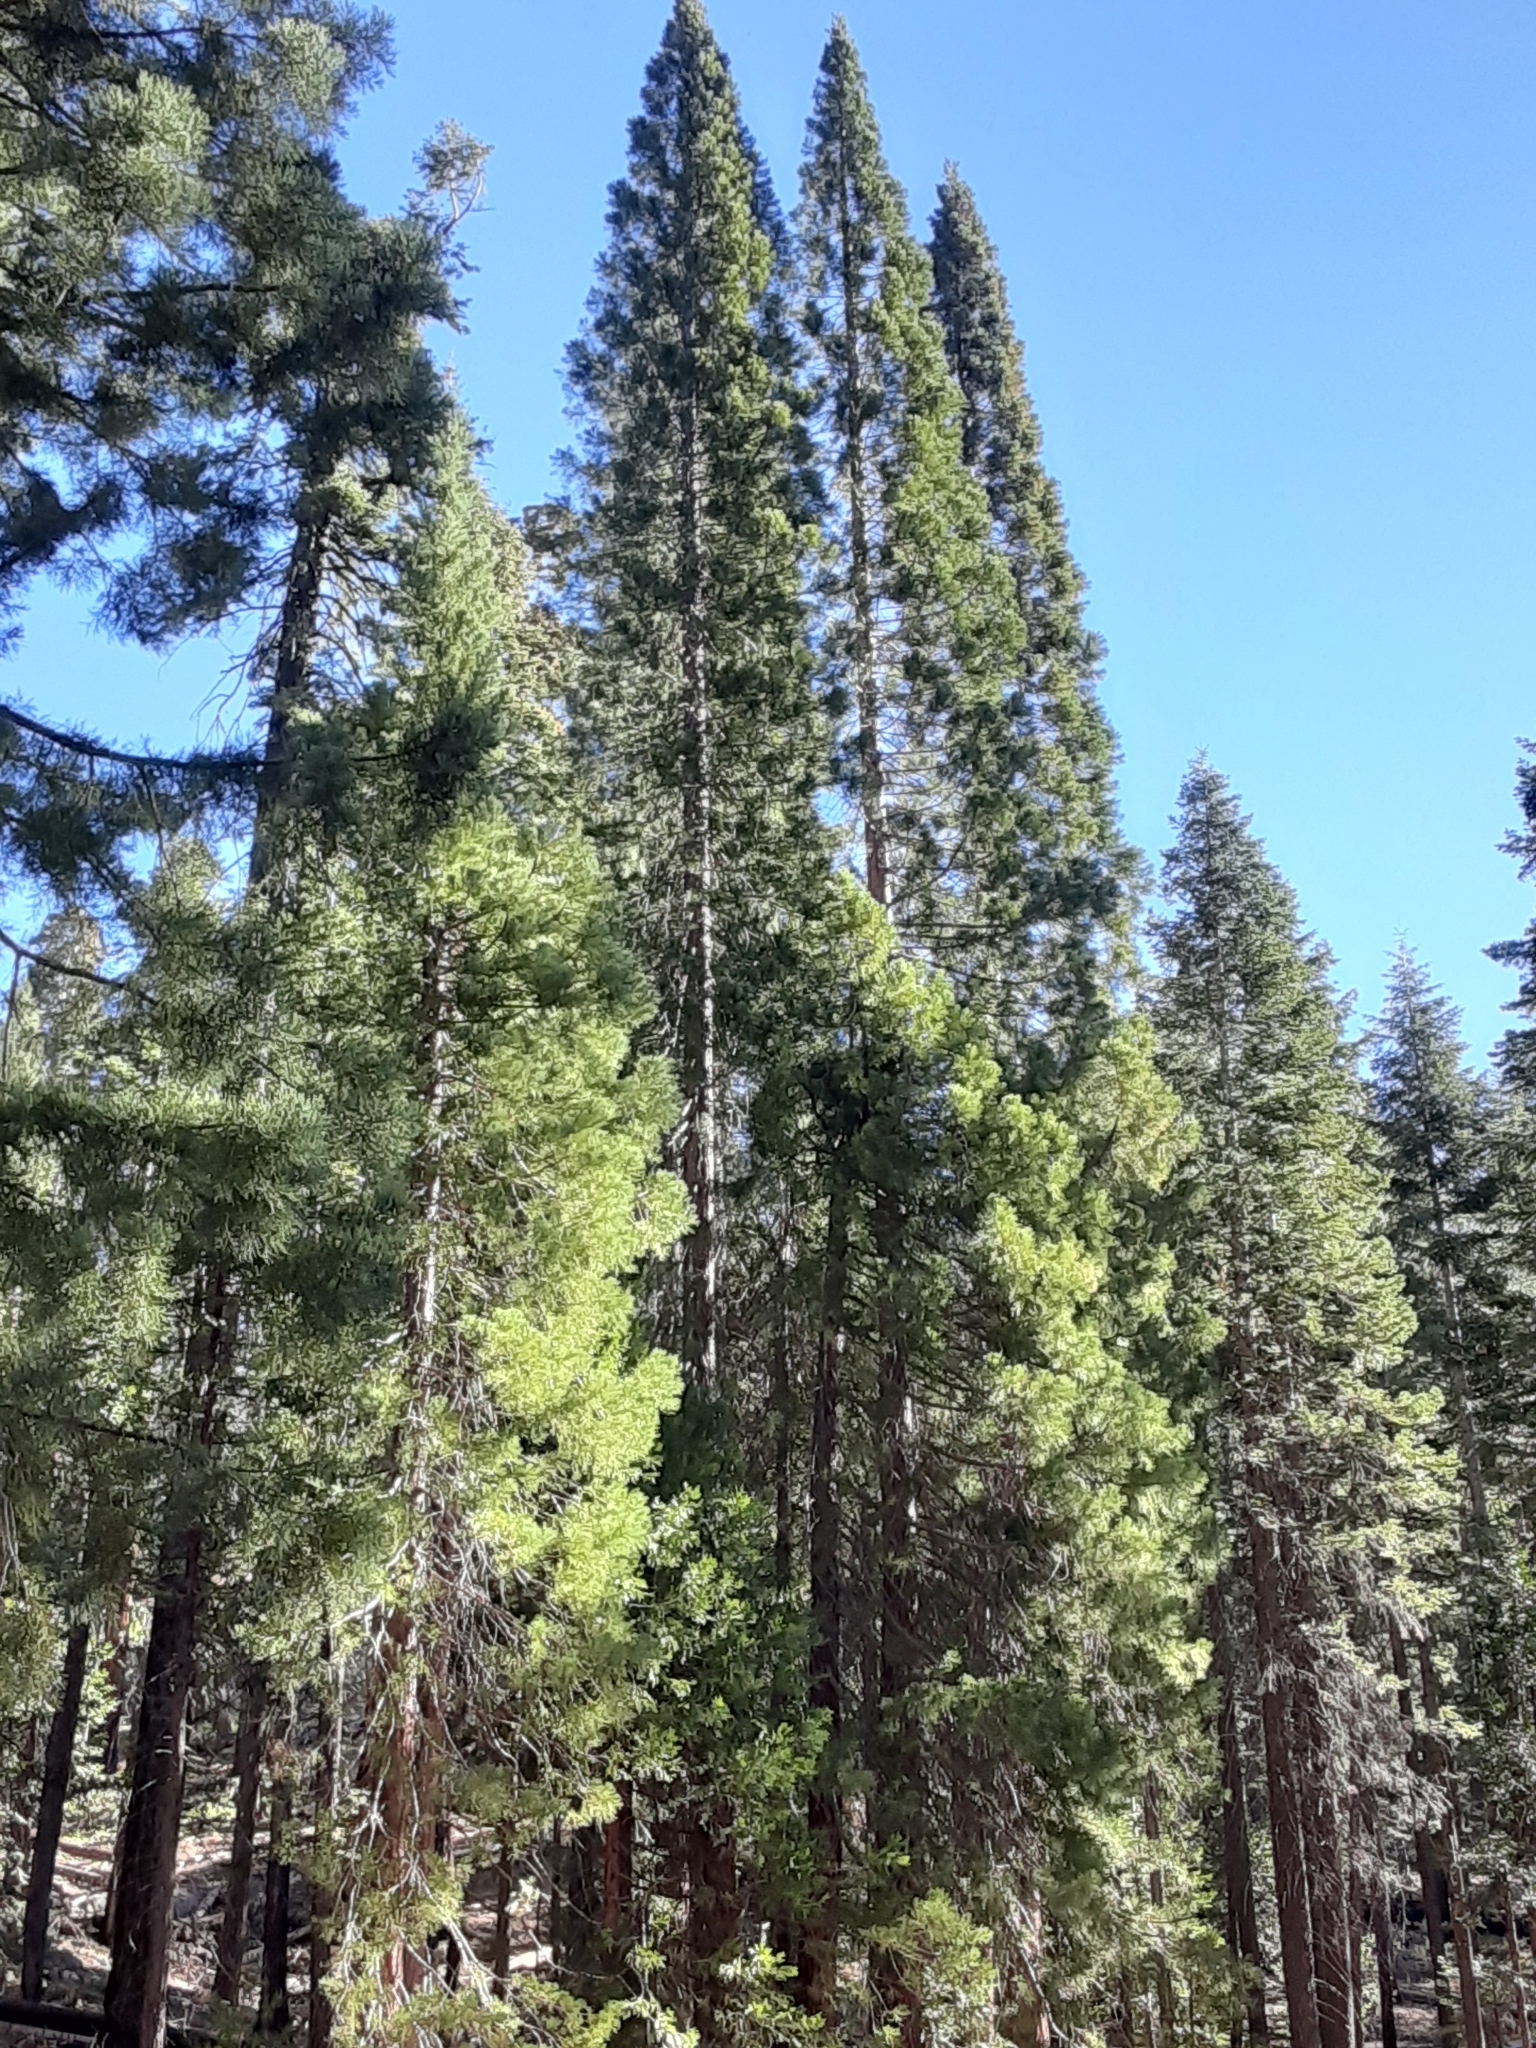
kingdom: Plantae
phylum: Tracheophyta
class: Pinopsida
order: Pinales
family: Cupressaceae
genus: Sequoiadendron
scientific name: Sequoiadendron giganteum
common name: Wellingtonia
